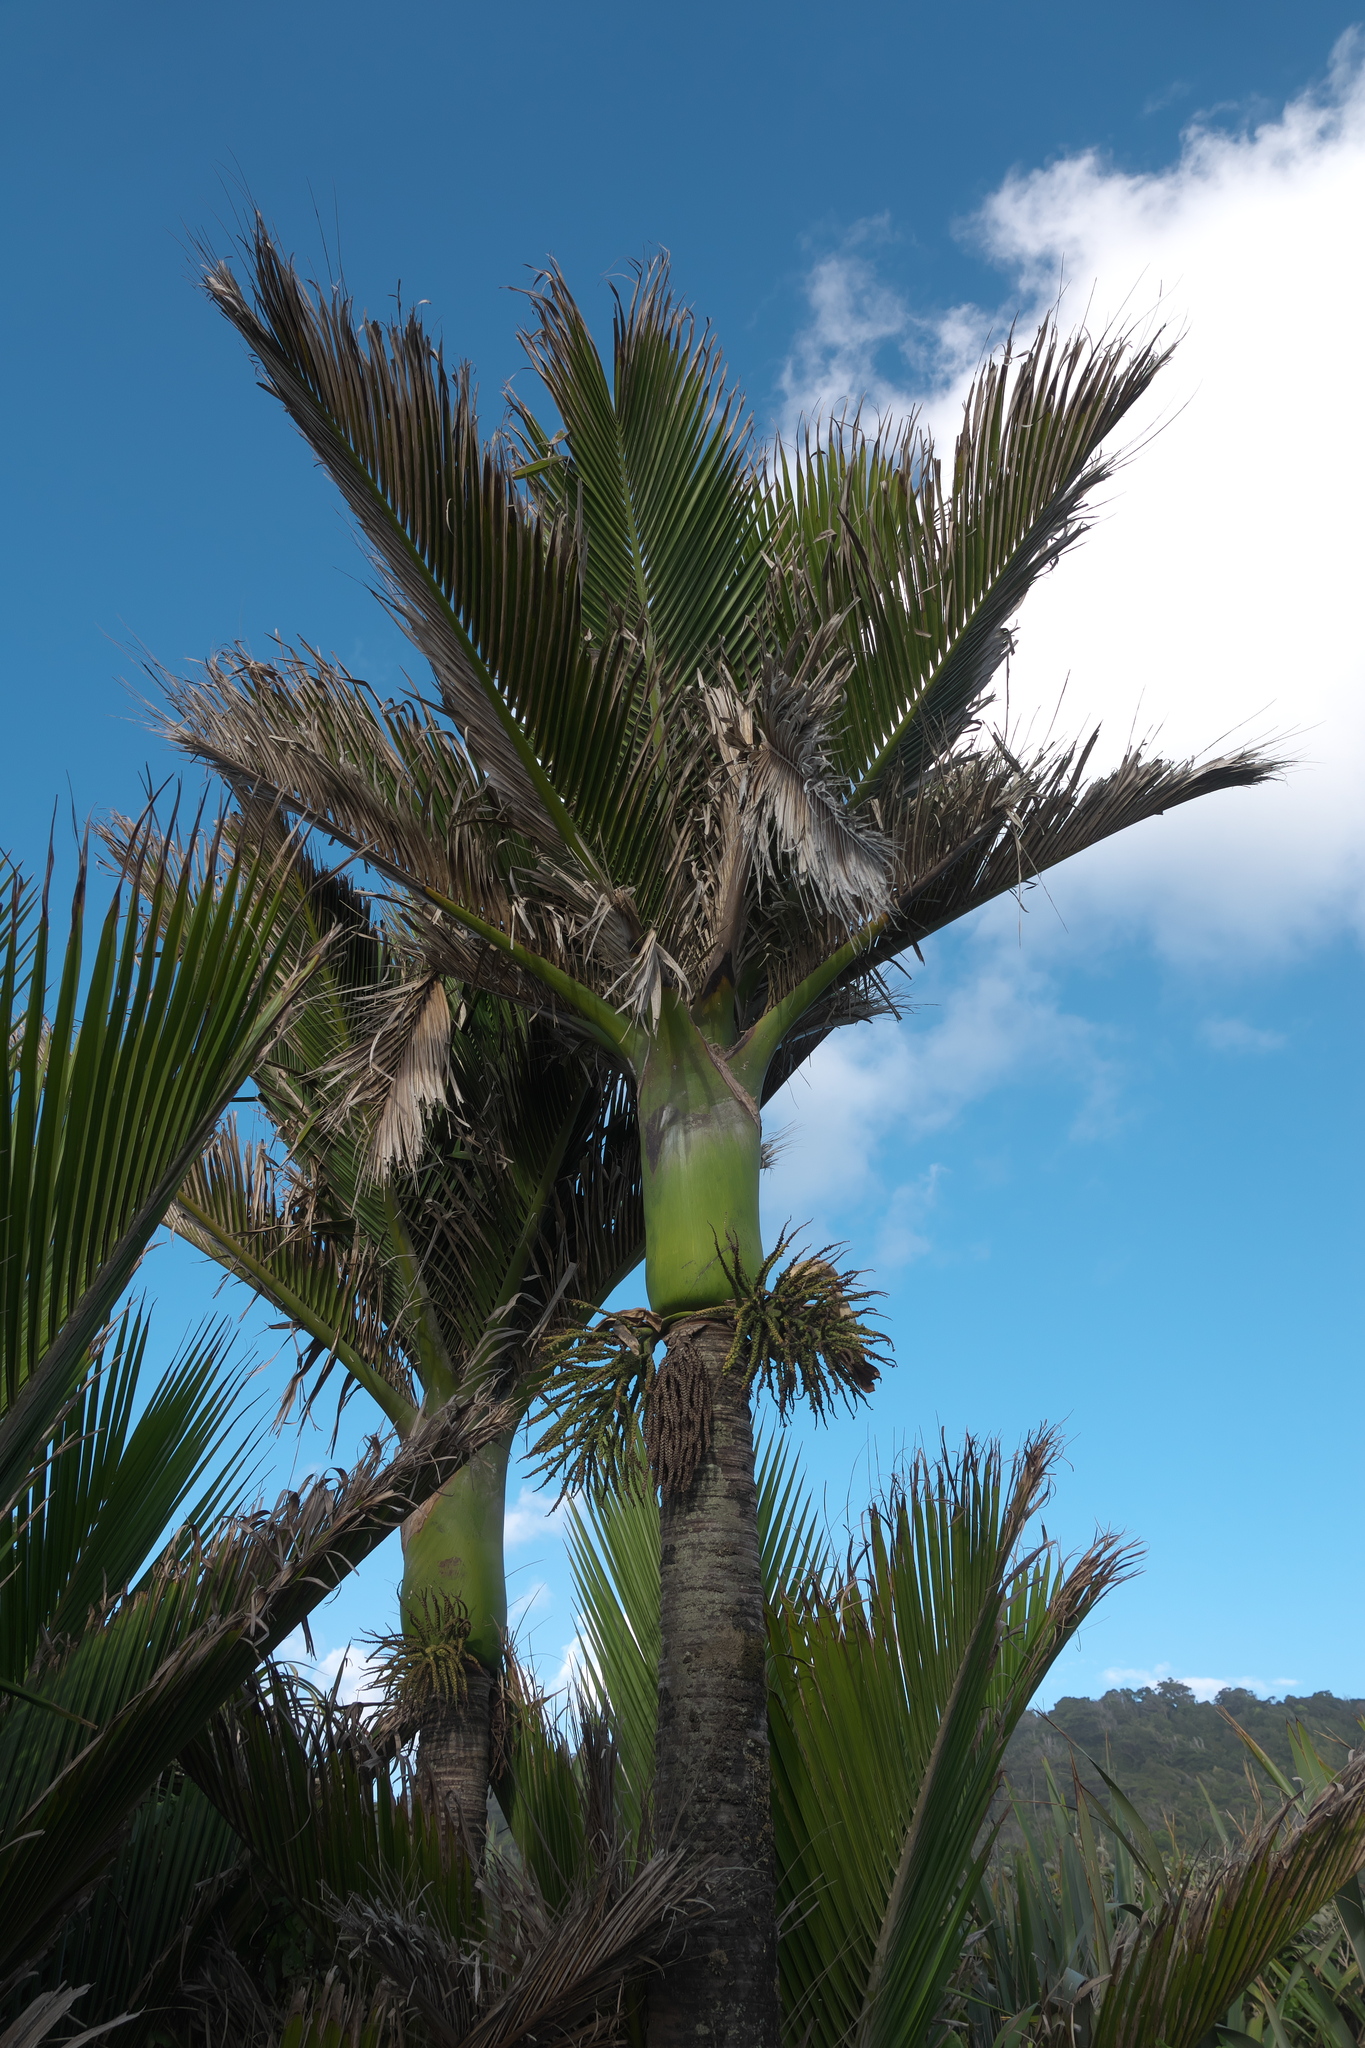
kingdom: Plantae
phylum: Tracheophyta
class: Liliopsida
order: Arecales
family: Arecaceae
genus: Rhopalostylis
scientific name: Rhopalostylis sapida
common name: Feather-duster palm
